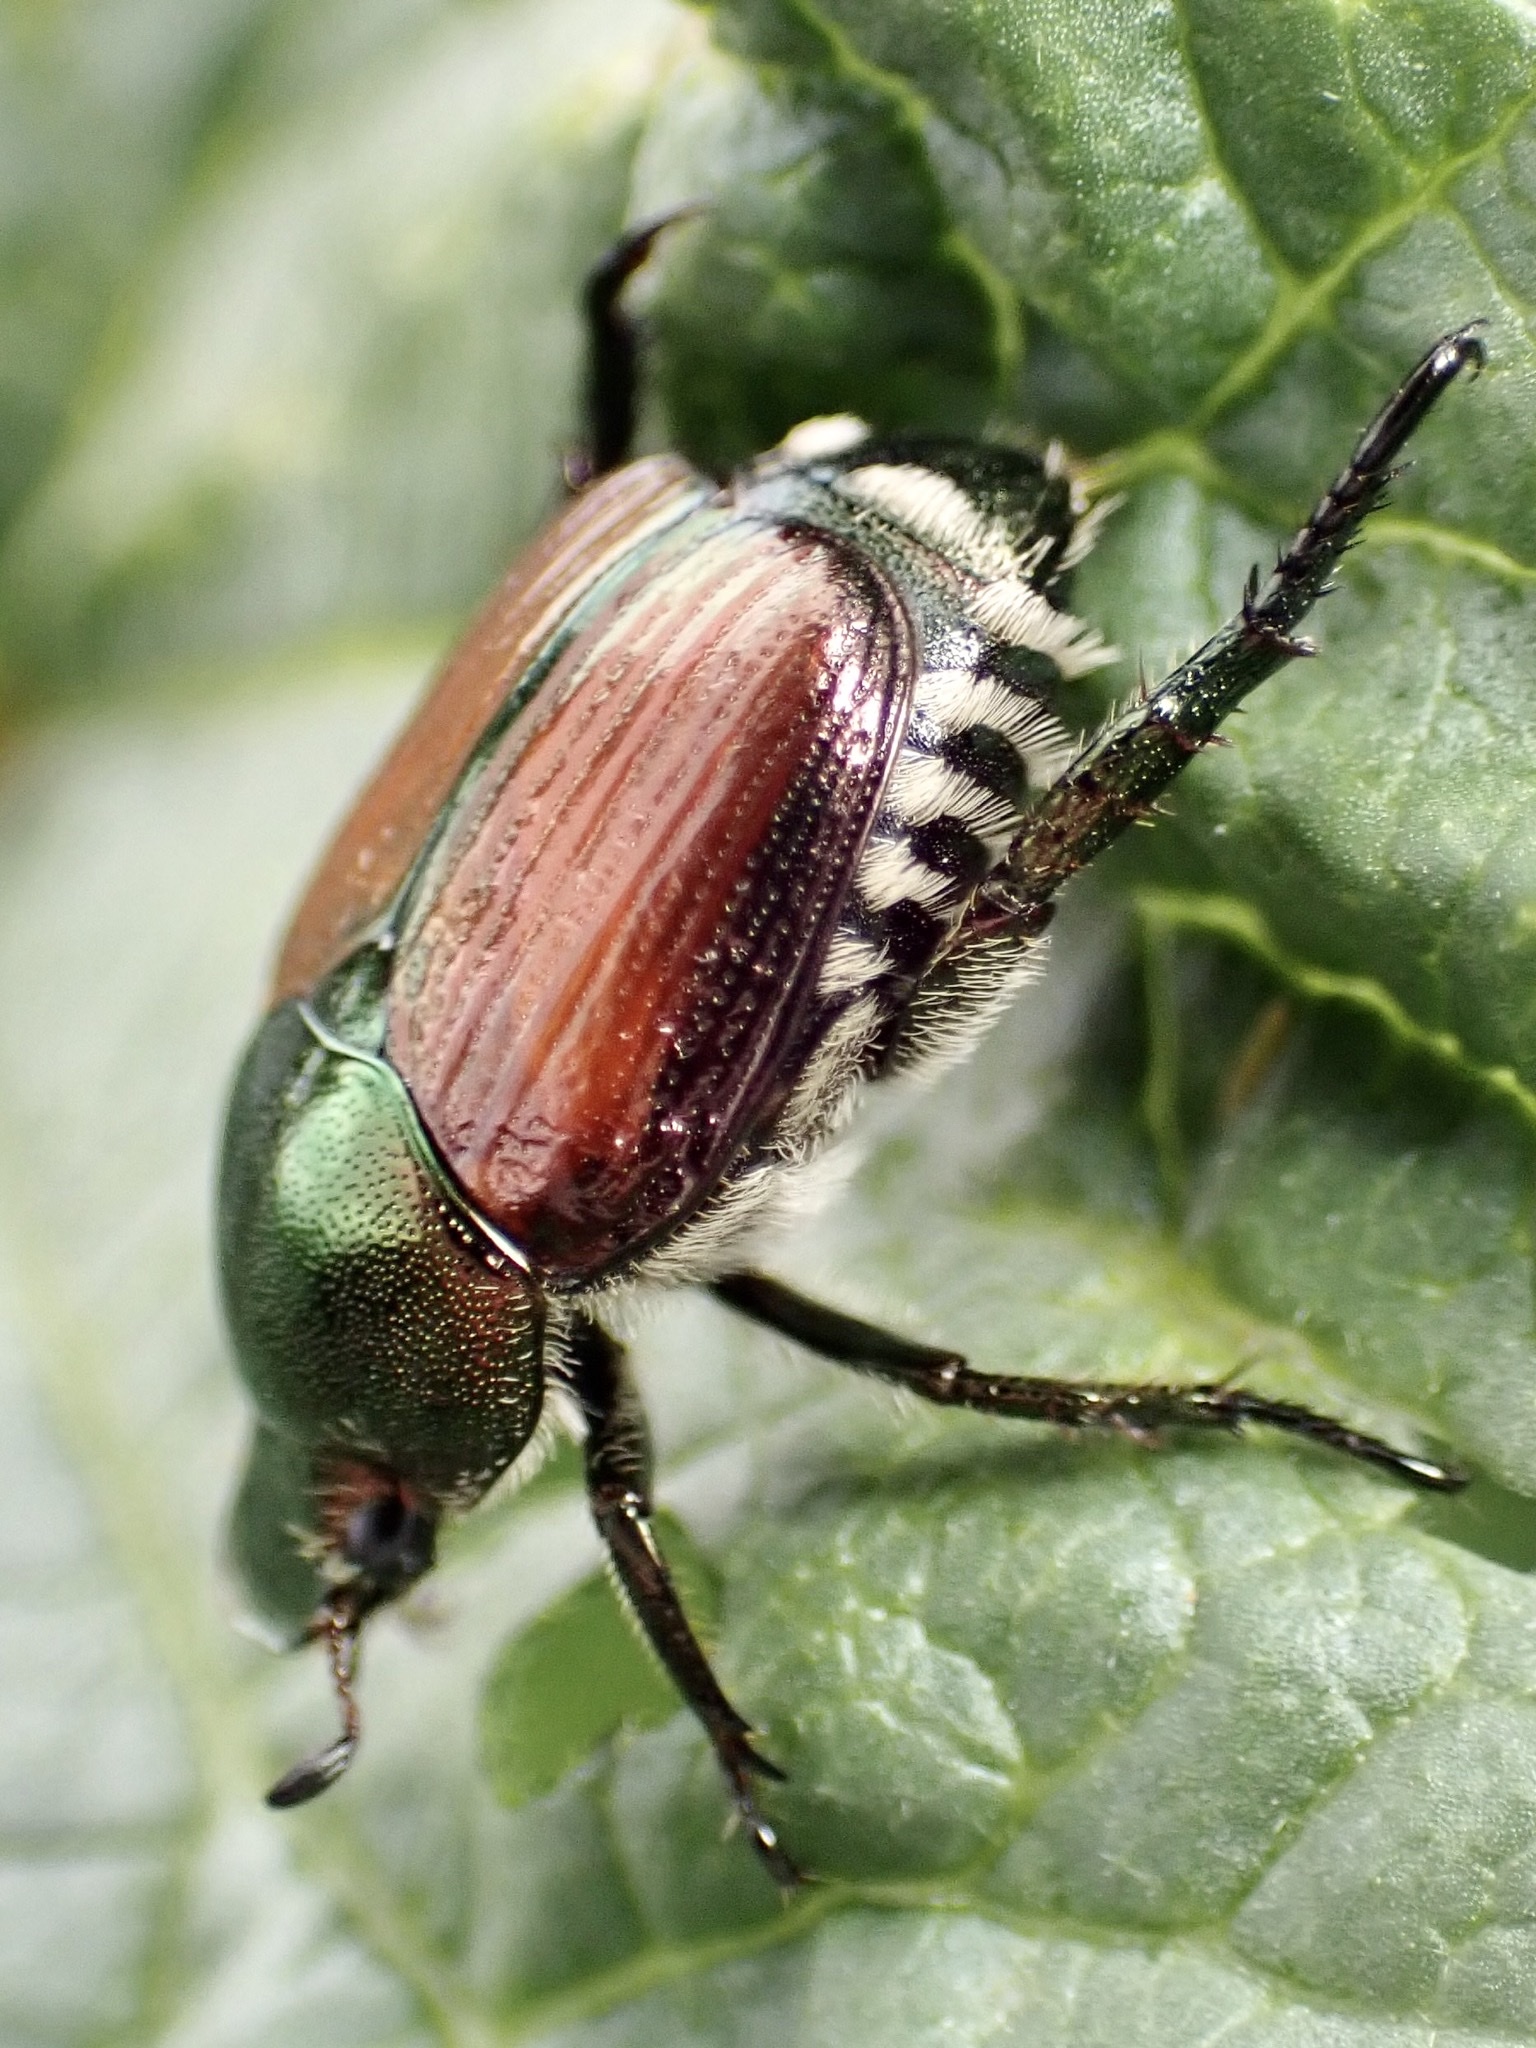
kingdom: Animalia
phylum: Arthropoda
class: Insecta
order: Coleoptera
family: Scarabaeidae
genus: Popillia
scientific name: Popillia japonica
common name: Japanese beetle
